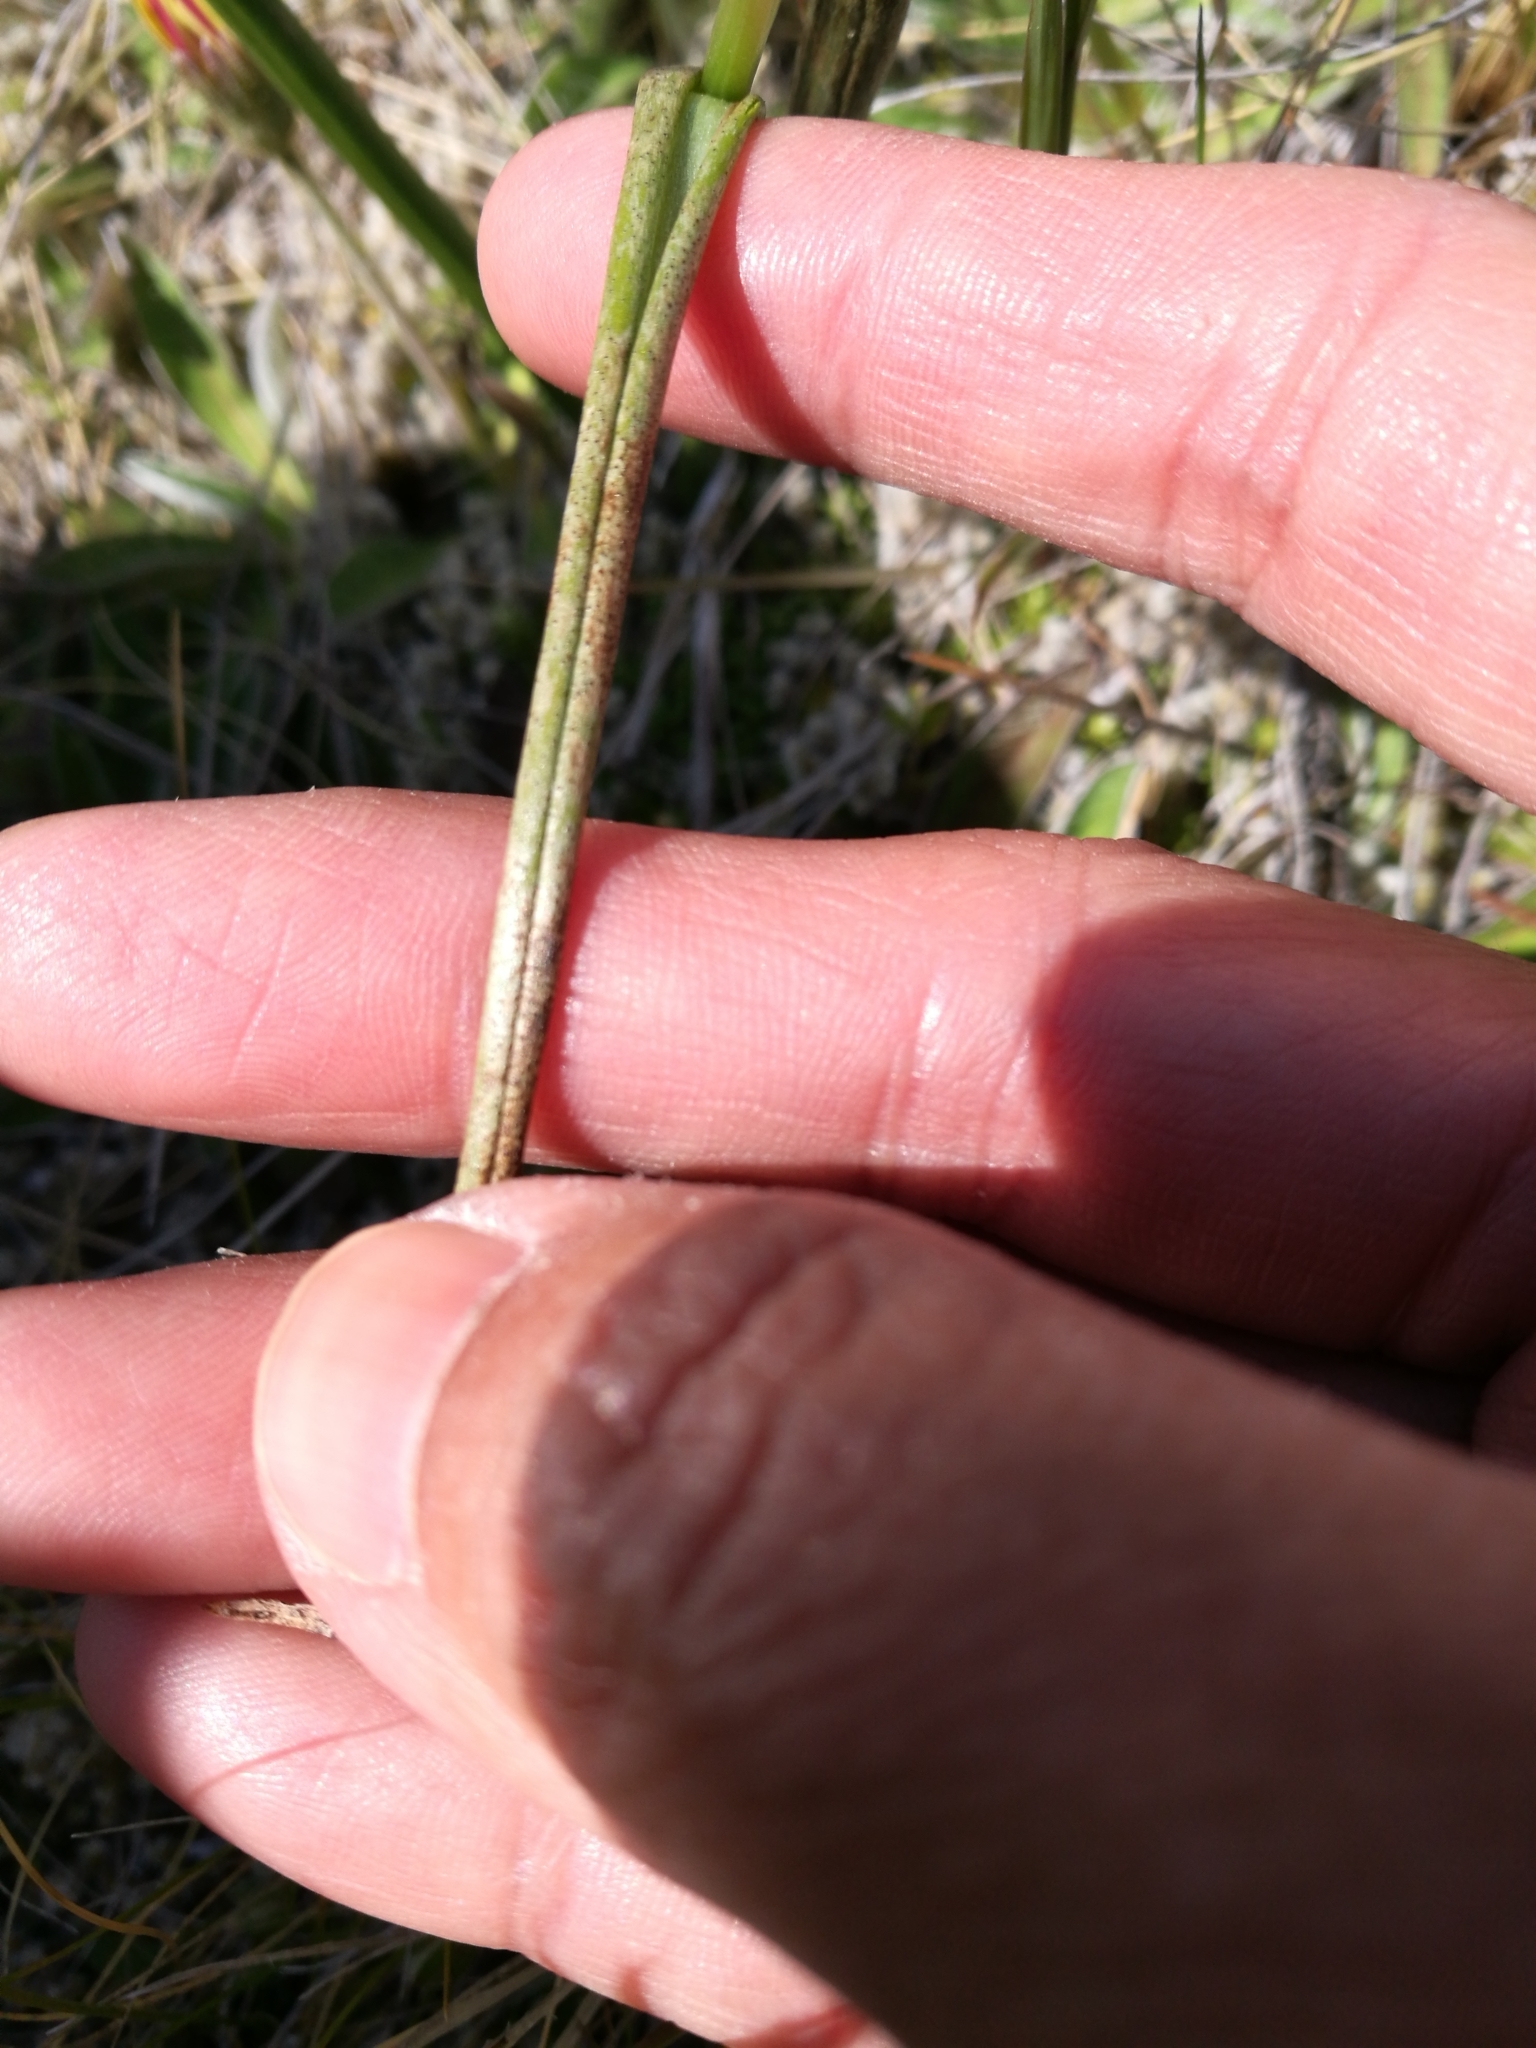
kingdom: Plantae
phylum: Tracheophyta
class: Liliopsida
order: Asparagales
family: Orchidaceae
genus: Prasophyllum
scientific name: Prasophyllum colensoi
